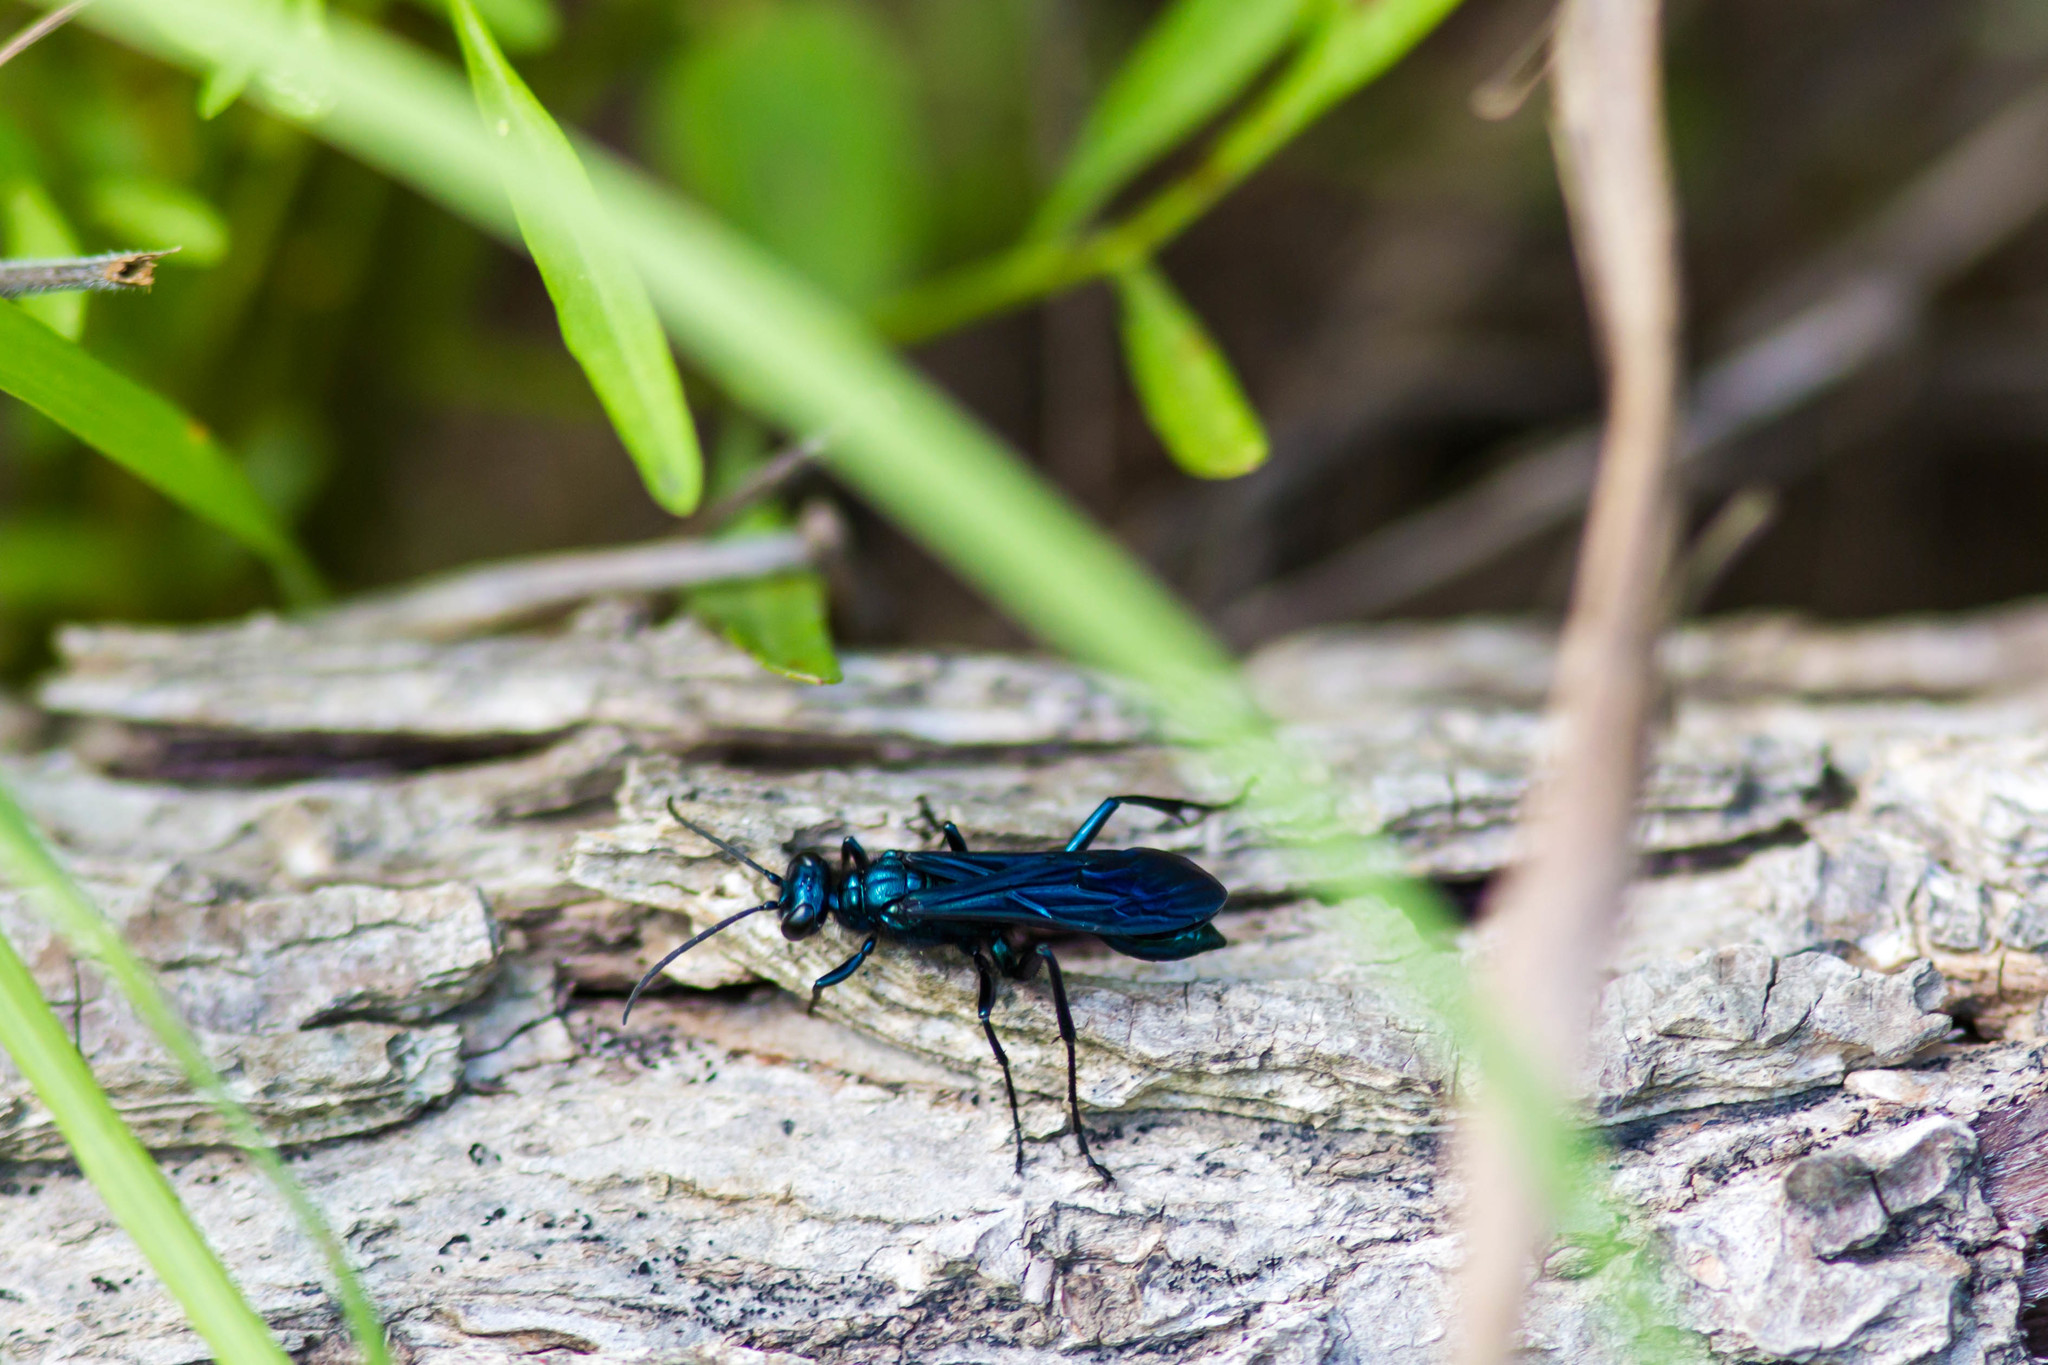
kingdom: Animalia
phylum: Arthropoda
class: Insecta
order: Hymenoptera
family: Sphecidae
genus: Chalybion
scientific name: Chalybion californicum
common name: Mud dauber
